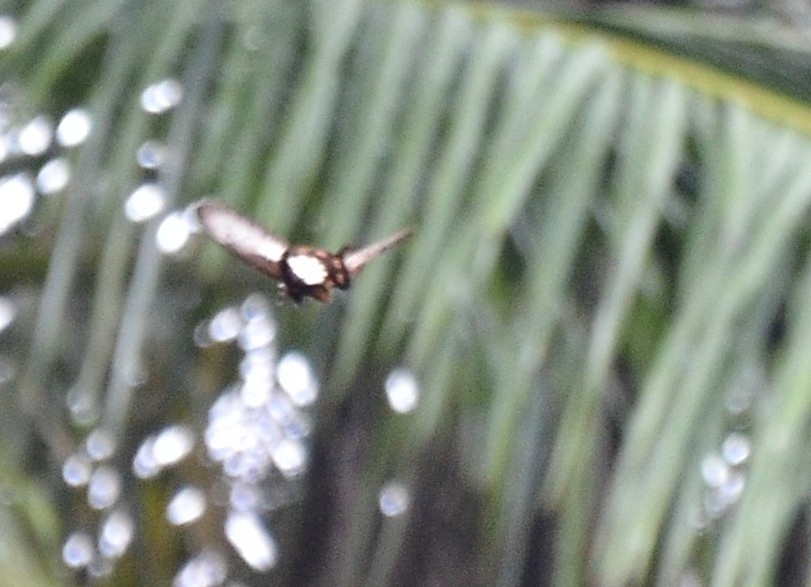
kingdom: Animalia
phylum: Arthropoda
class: Insecta
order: Lepidoptera
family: Papilionidae
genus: Pachliopta
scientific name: Pachliopta pandiyana
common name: Malabar rose
